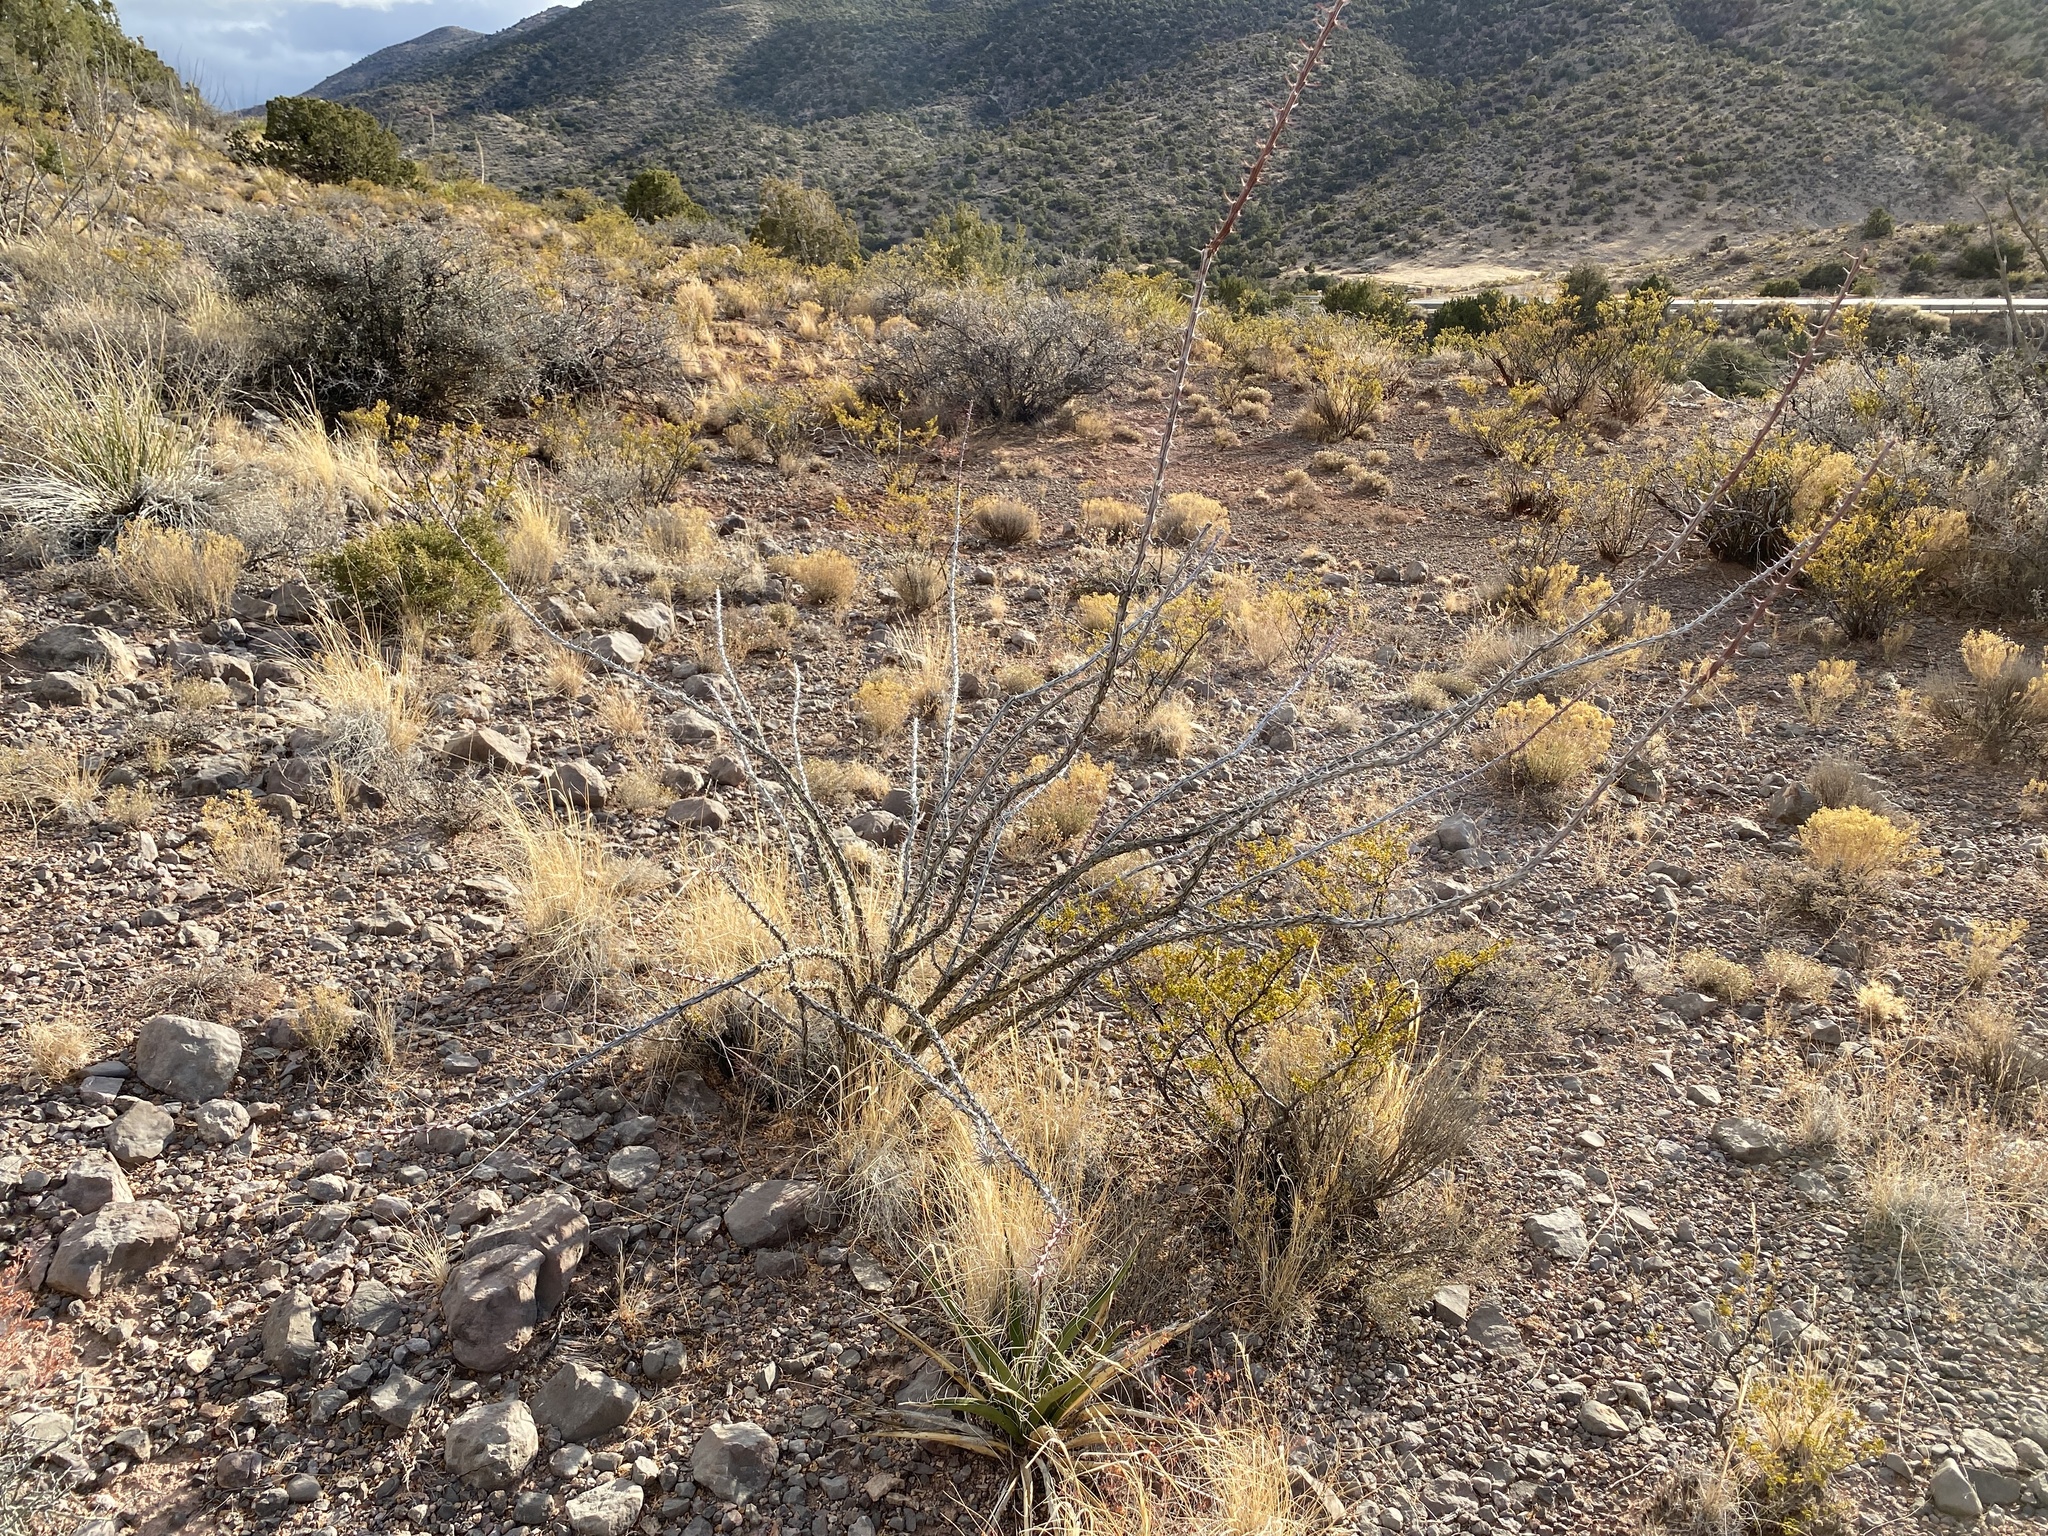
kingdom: Plantae
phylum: Tracheophyta
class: Magnoliopsida
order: Ericales
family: Fouquieriaceae
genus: Fouquieria
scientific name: Fouquieria splendens
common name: Vine-cactus
